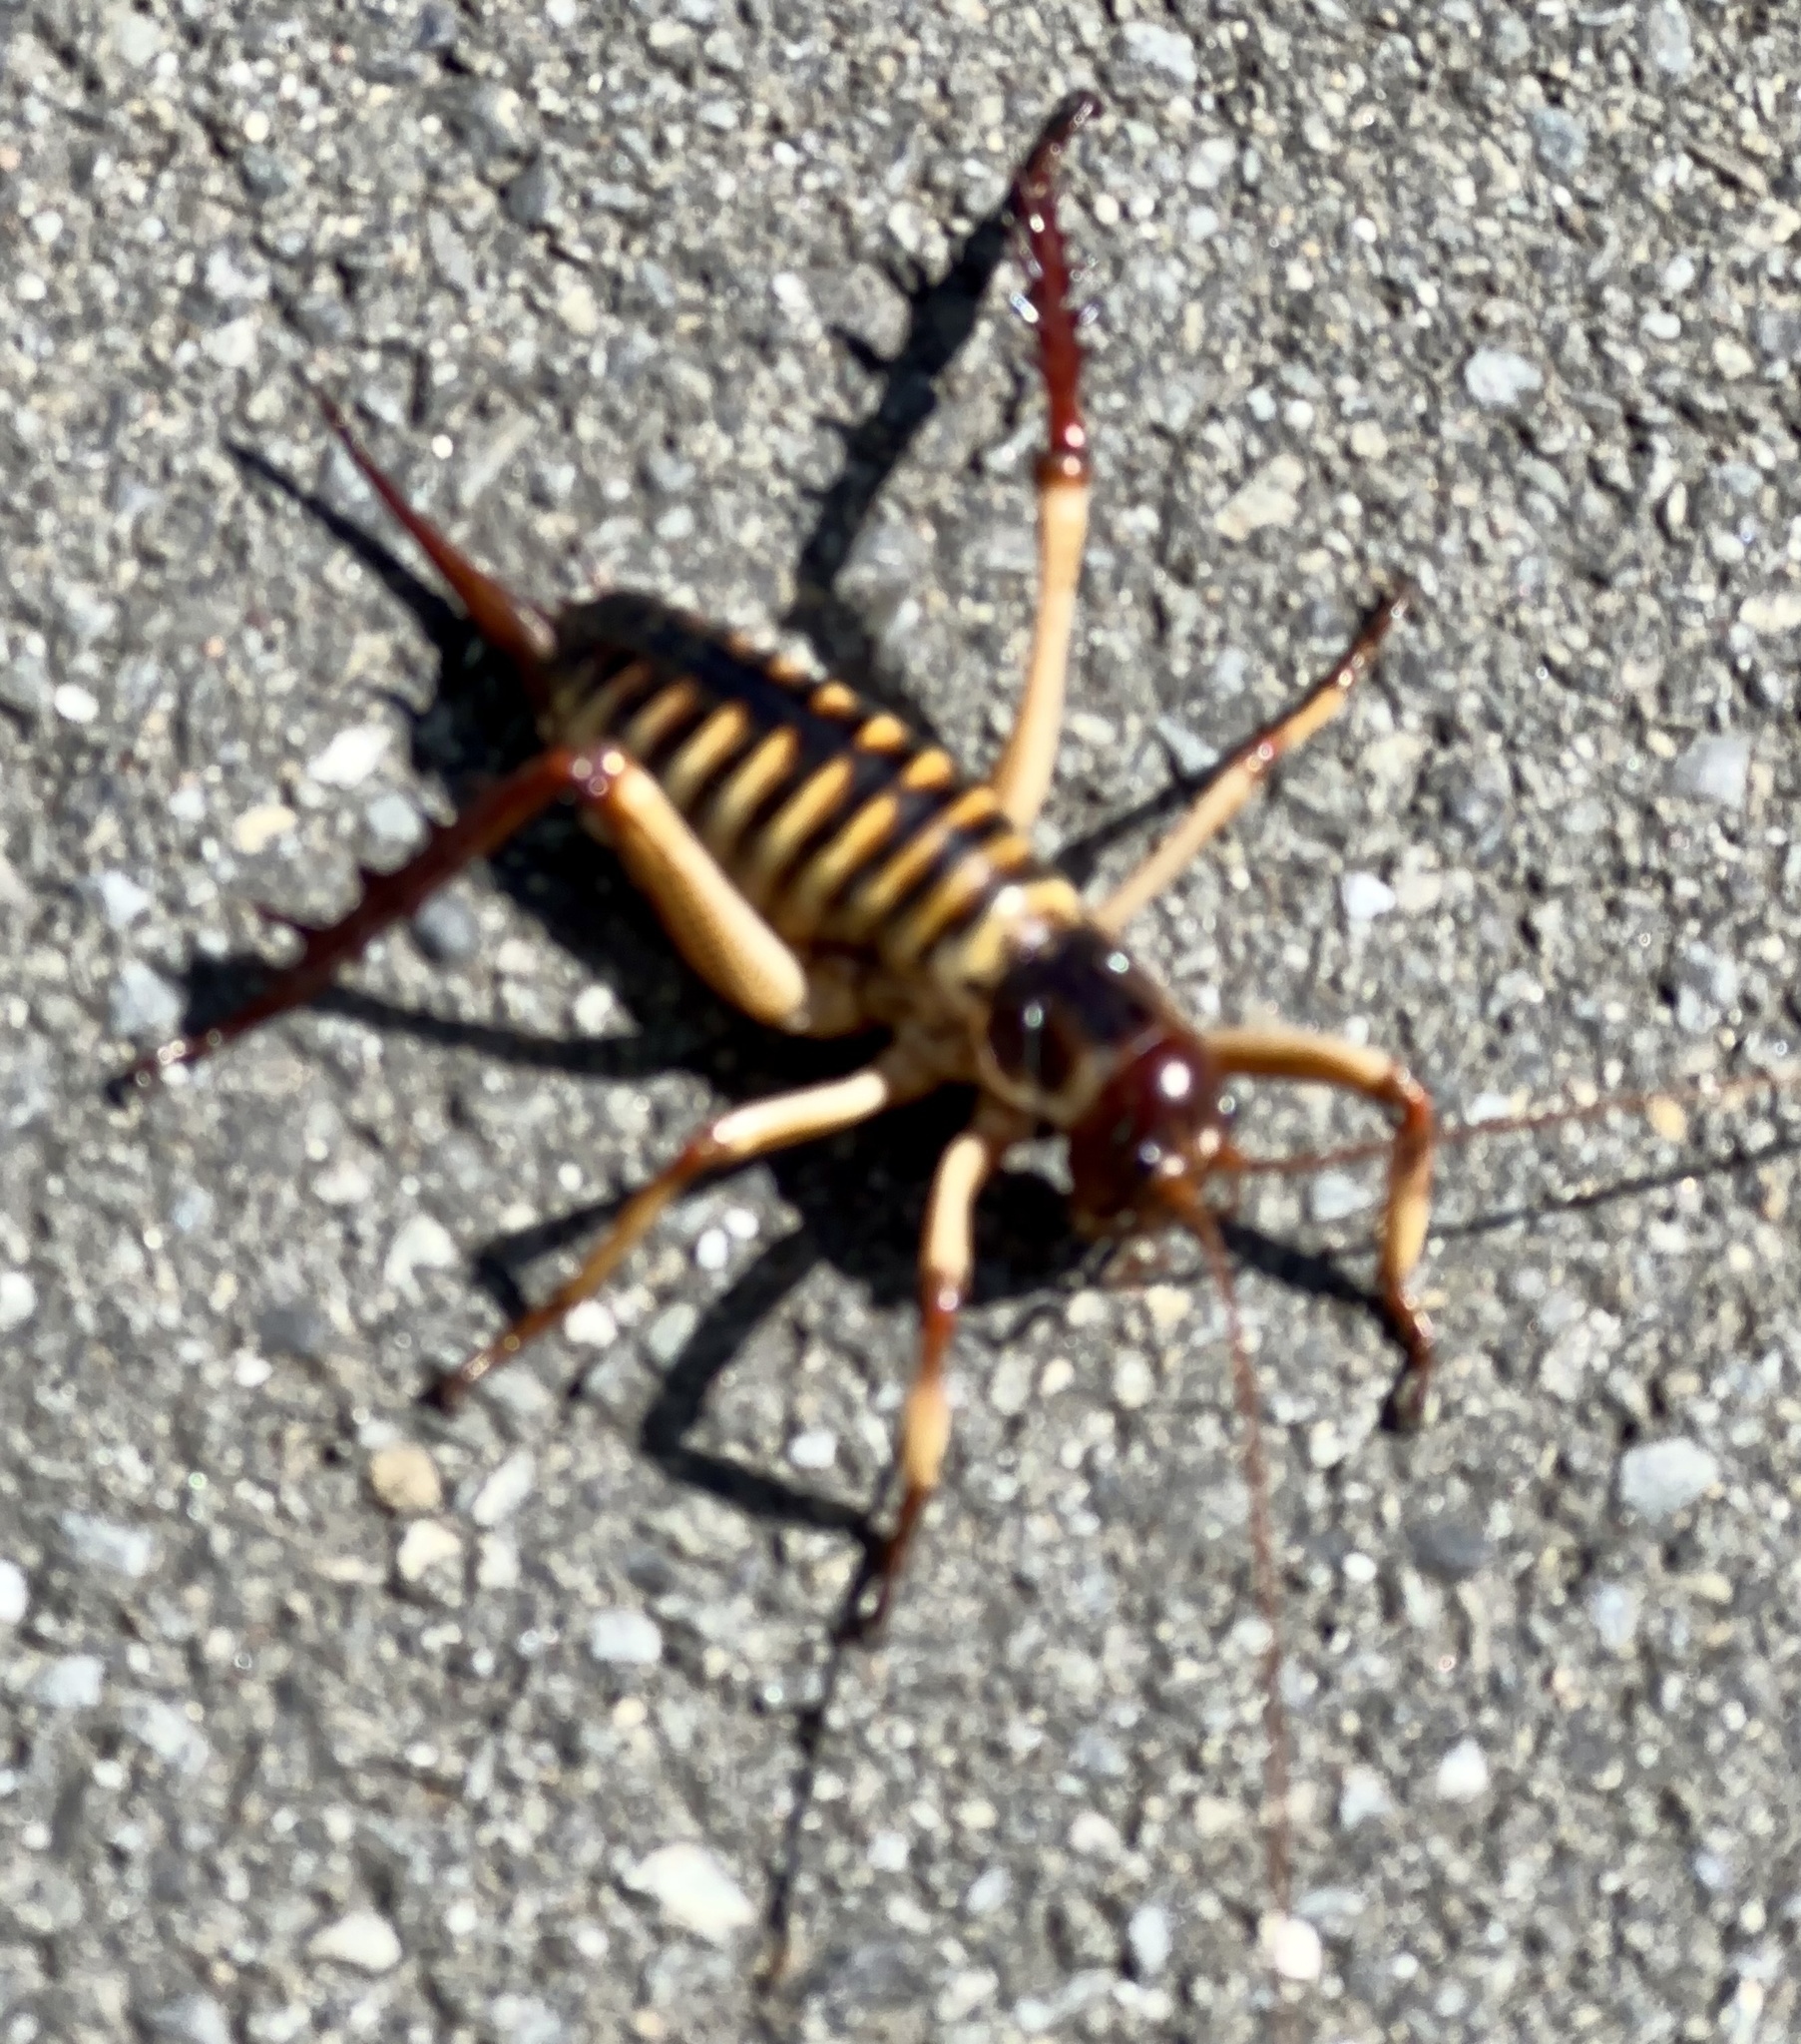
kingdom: Animalia
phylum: Arthropoda
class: Insecta
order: Orthoptera
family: Anostostomatidae
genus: Hemideina
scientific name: Hemideina crassidens
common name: Wellington tree weta
